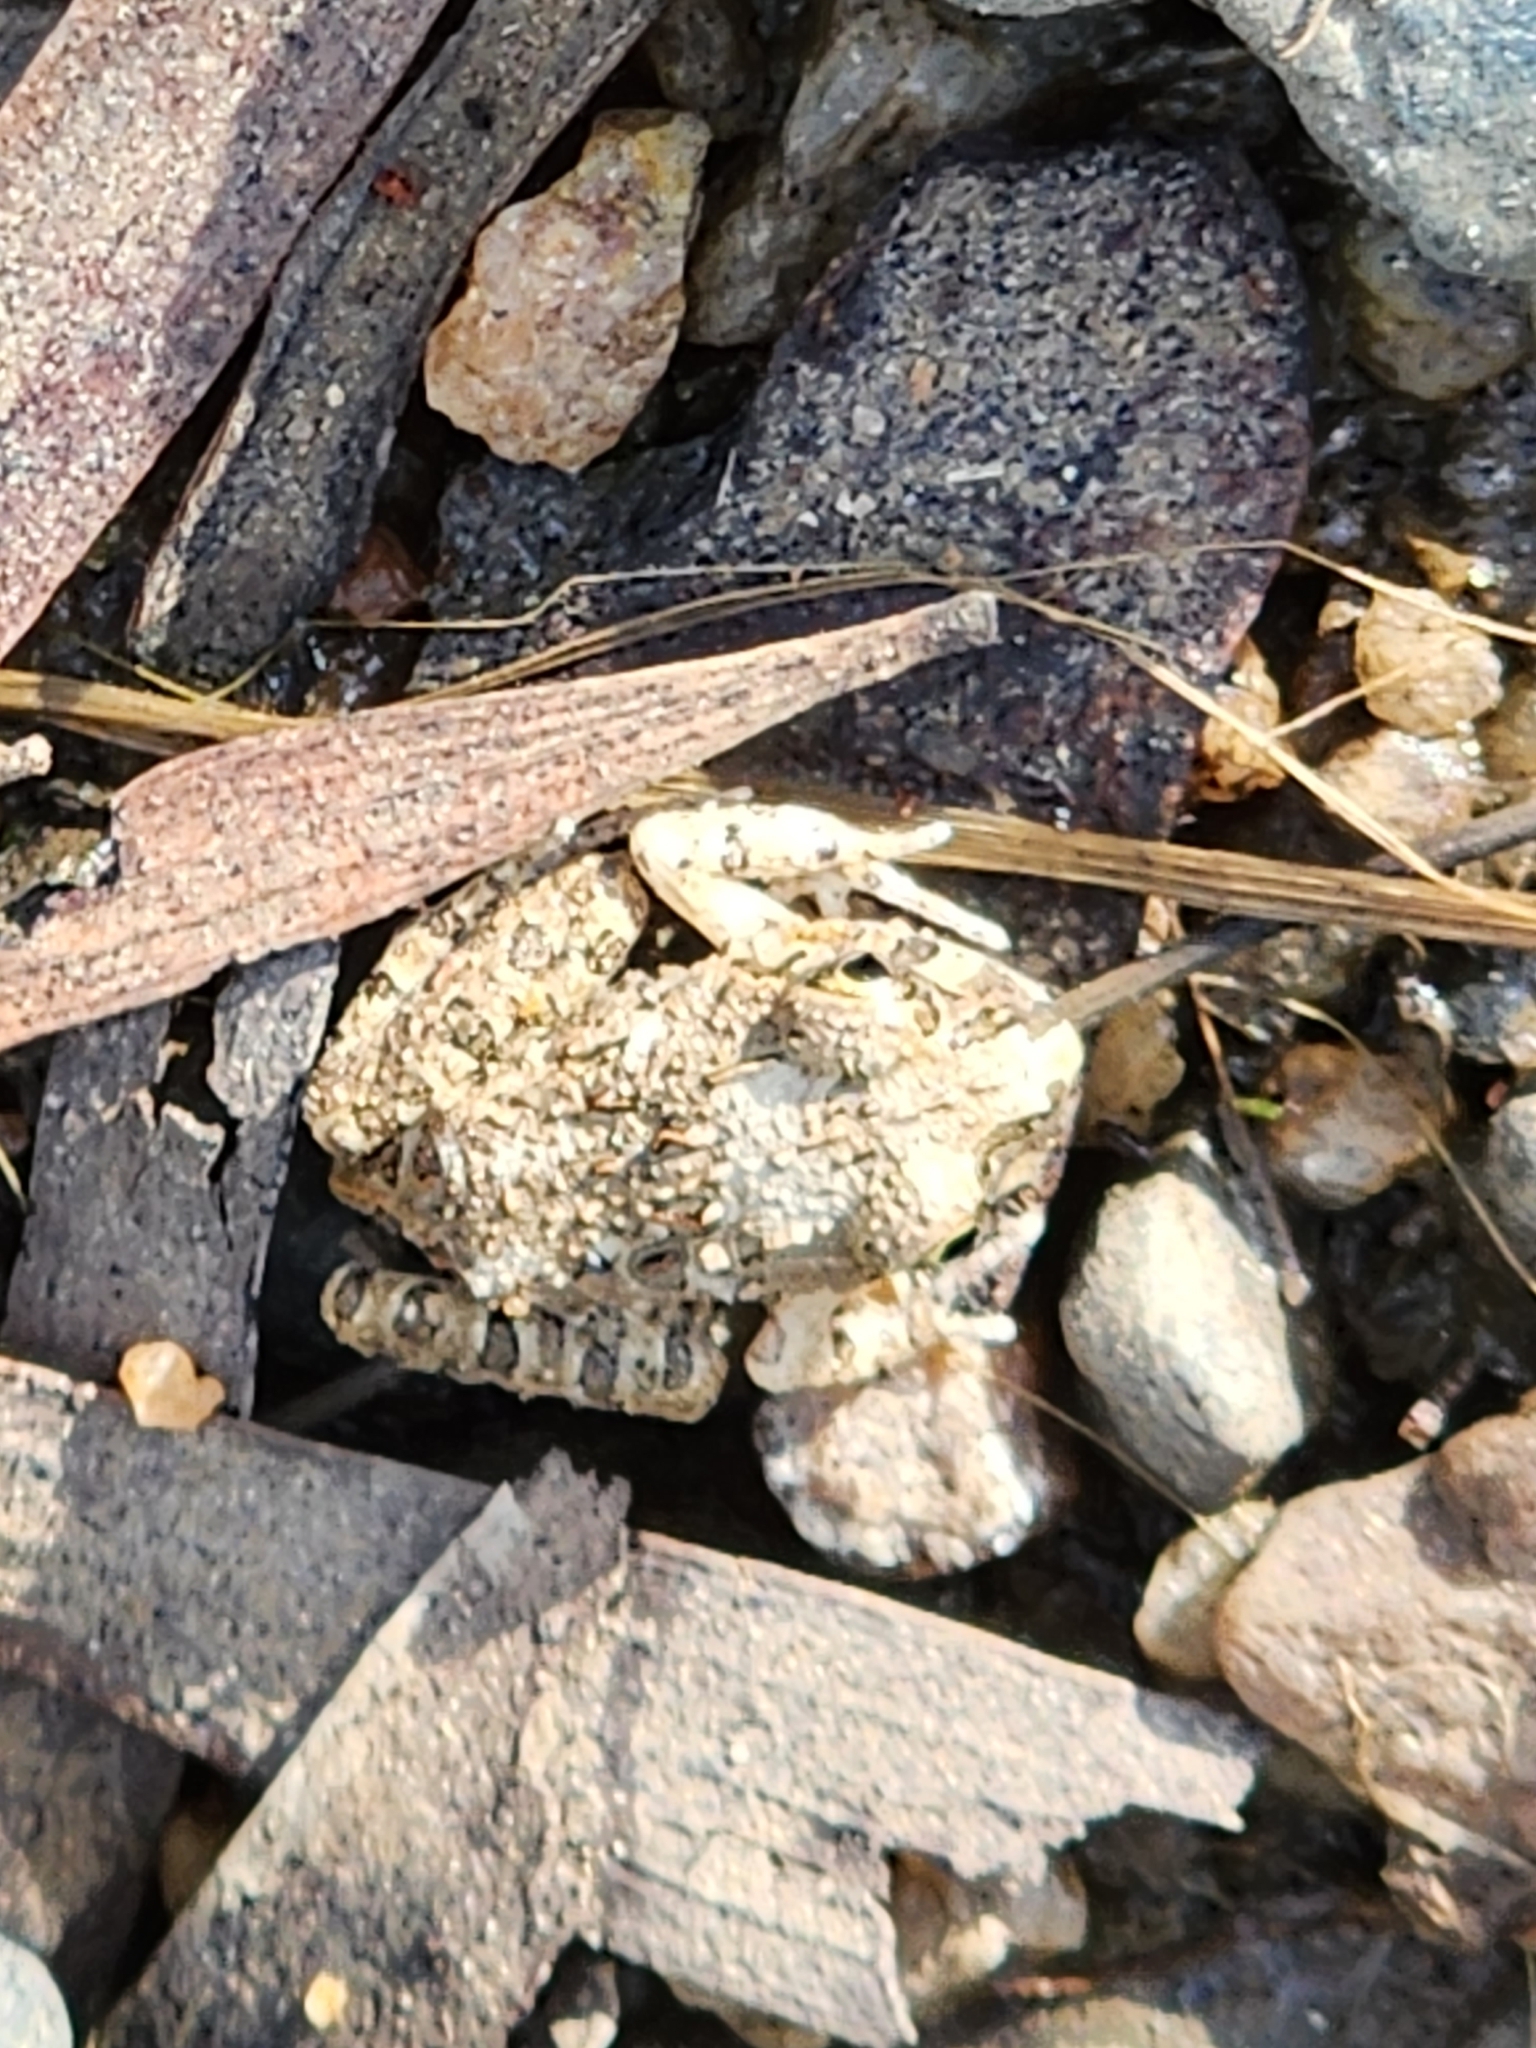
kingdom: Animalia
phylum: Chordata
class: Amphibia
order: Anura
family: Limnodynastidae
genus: Platyplectrum
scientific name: Platyplectrum ornatum
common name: Ornate burrowing frog
